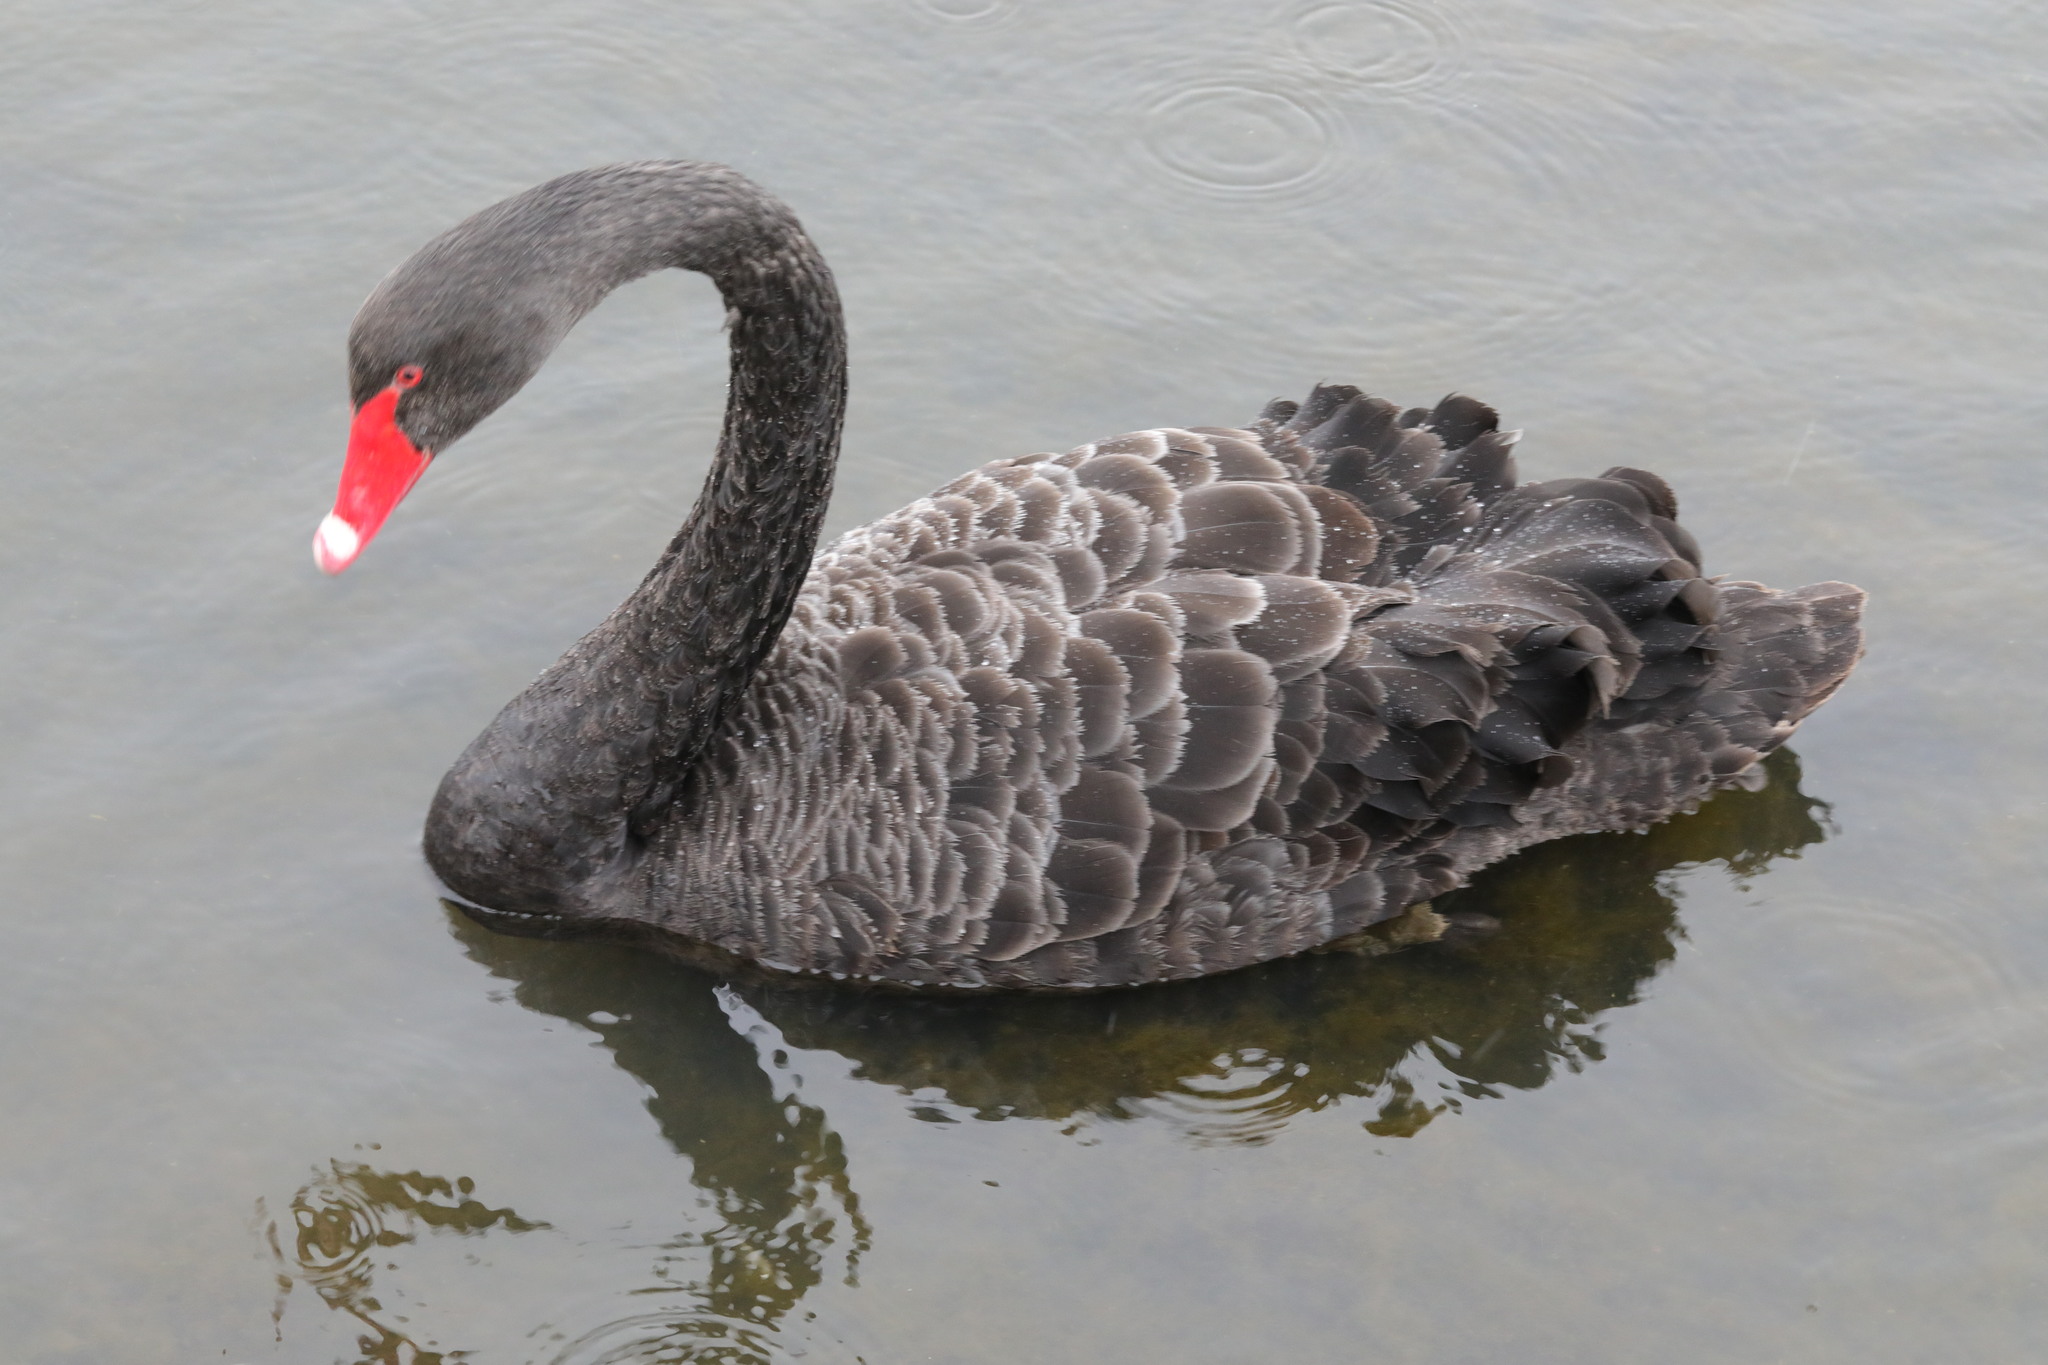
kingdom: Animalia
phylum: Chordata
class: Aves
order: Anseriformes
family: Anatidae
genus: Cygnus
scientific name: Cygnus atratus
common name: Black swan
